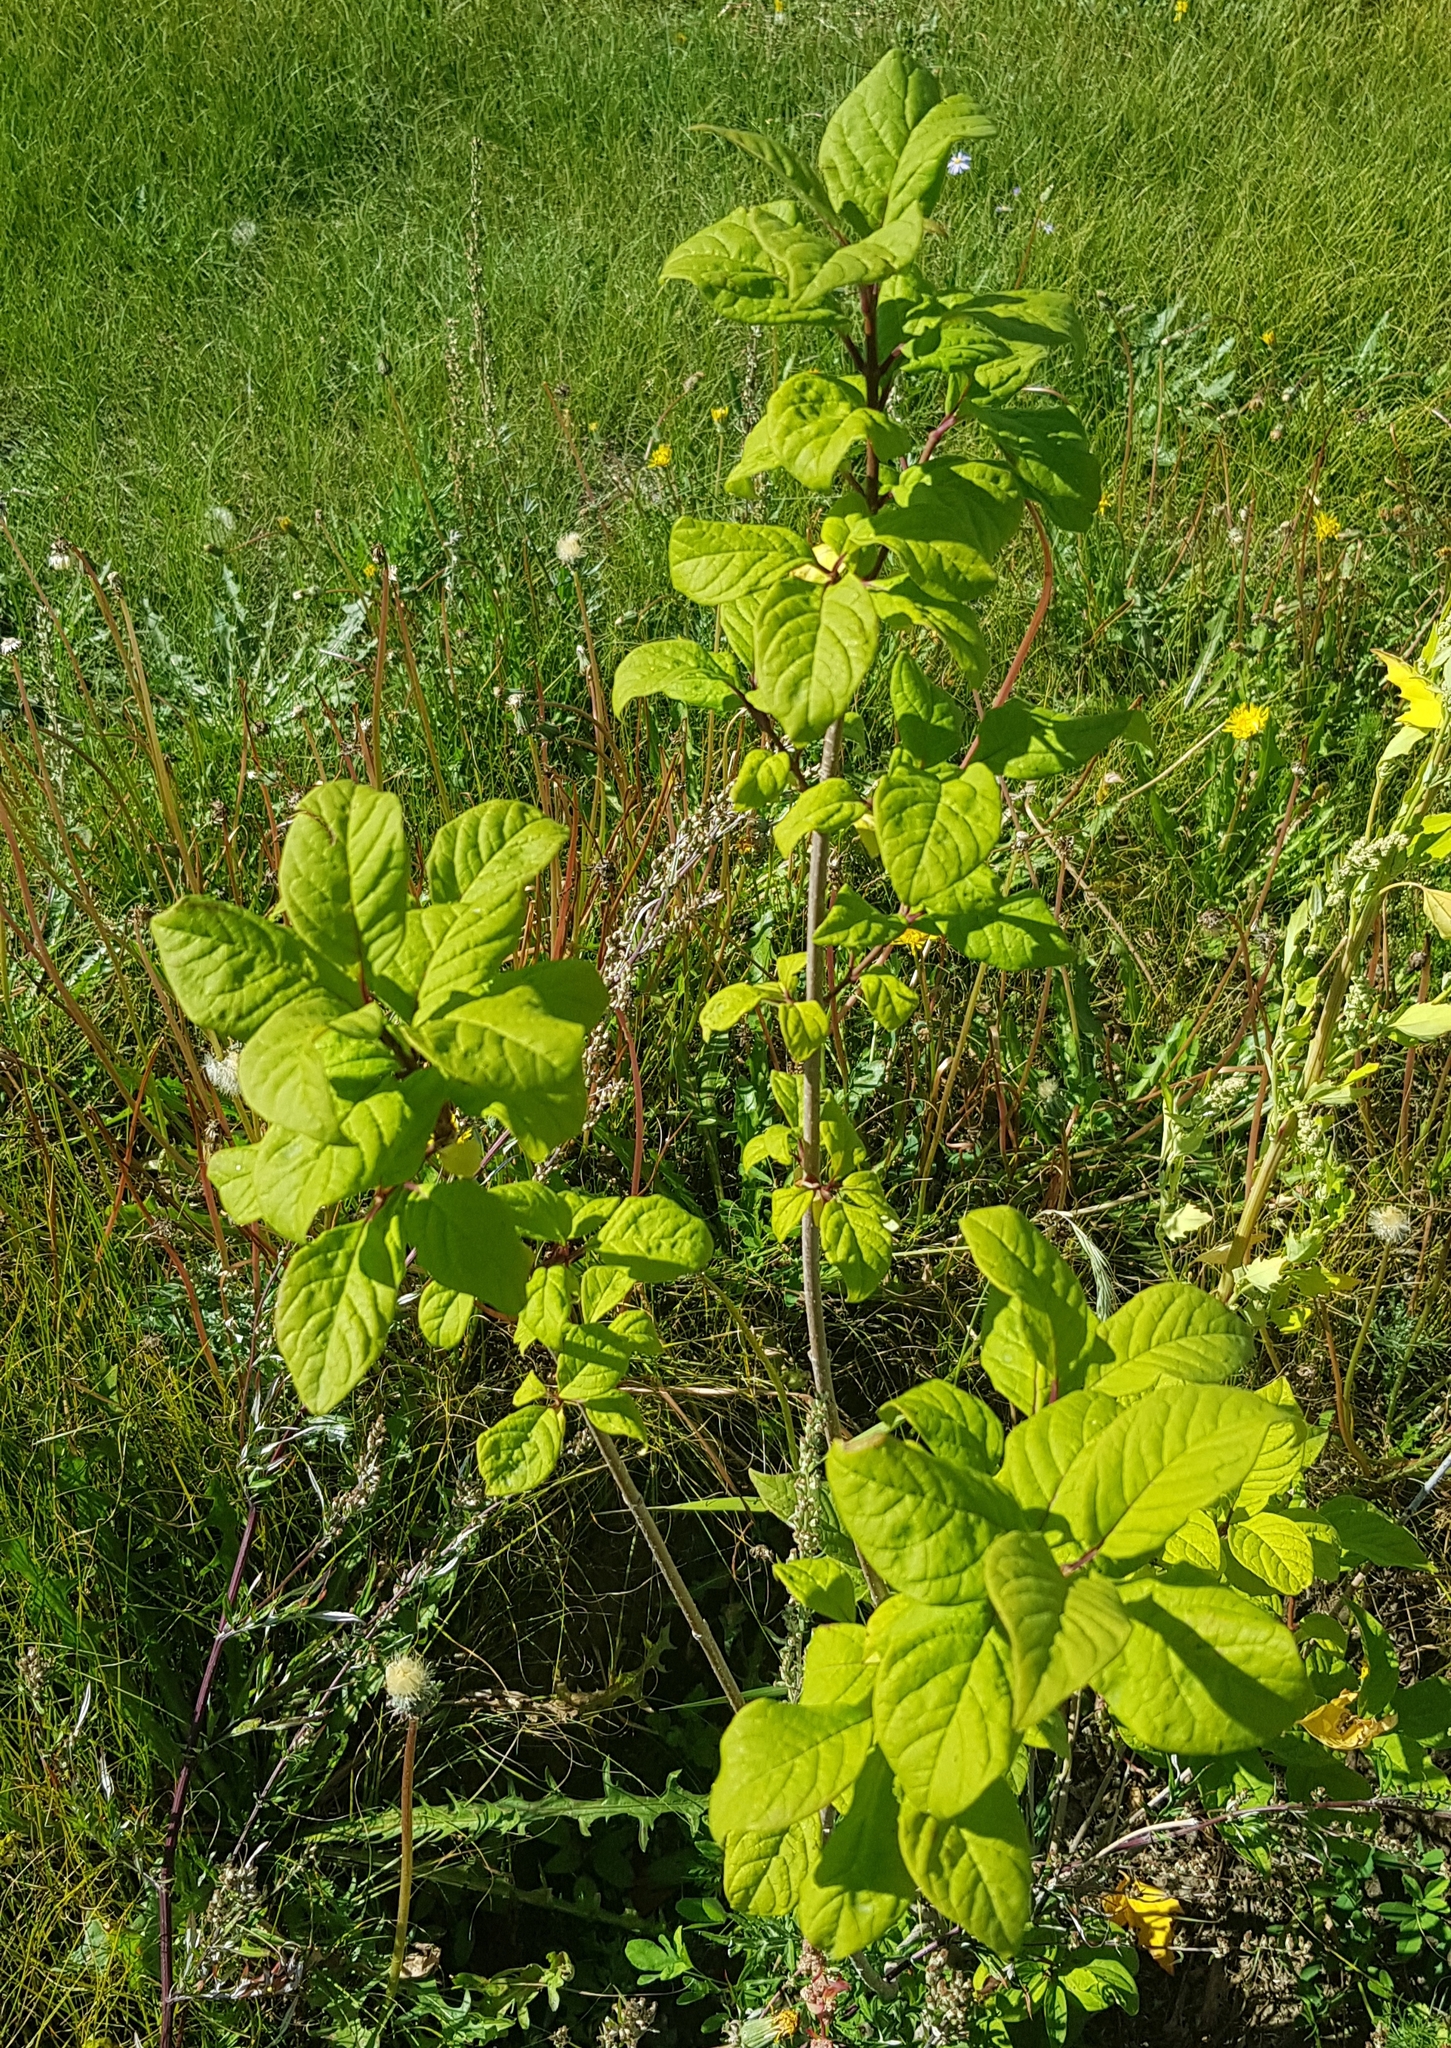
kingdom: Plantae
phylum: Tracheophyta
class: Magnoliopsida
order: Rosales
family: Rosaceae
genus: Prunus
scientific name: Prunus padus
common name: Bird cherry
